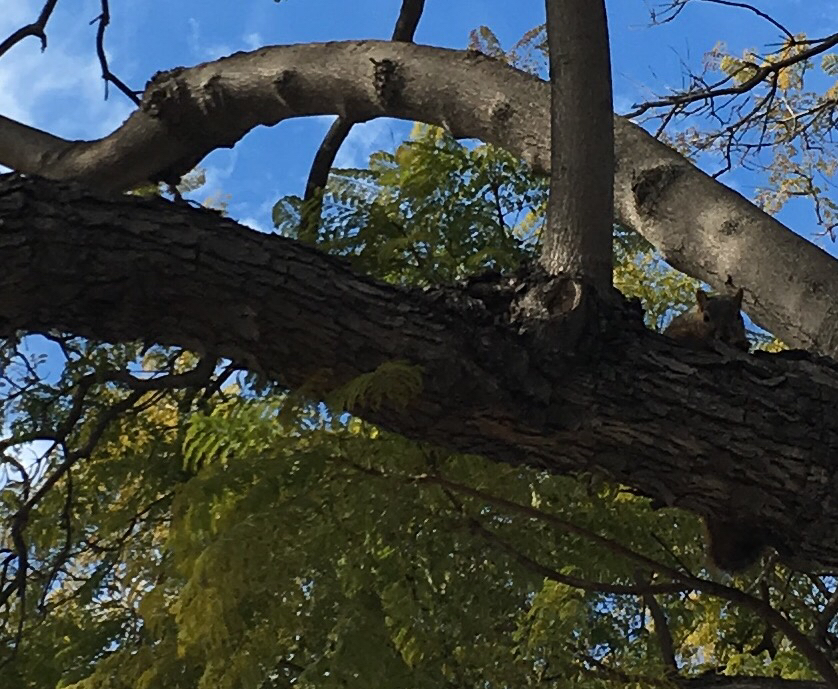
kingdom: Animalia
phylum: Chordata
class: Mammalia
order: Rodentia
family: Sciuridae
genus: Sciurus
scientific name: Sciurus niger
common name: Fox squirrel
